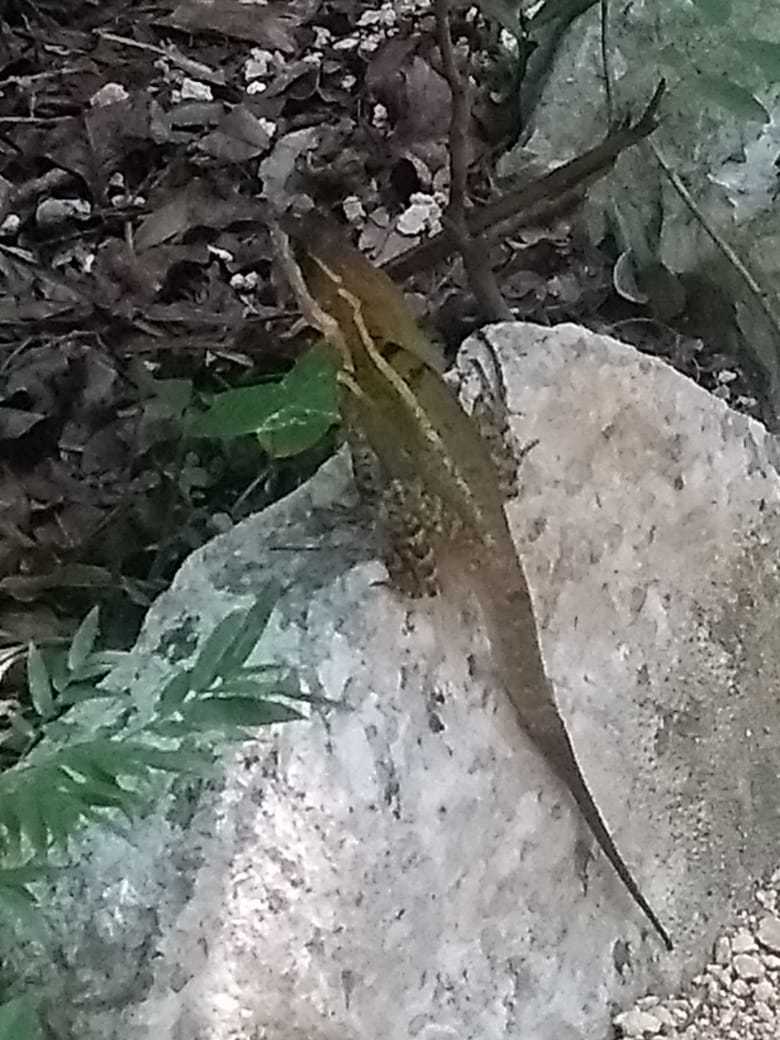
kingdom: Animalia
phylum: Chordata
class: Squamata
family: Corytophanidae
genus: Basiliscus
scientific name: Basiliscus vittatus
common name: Brown basilisk
